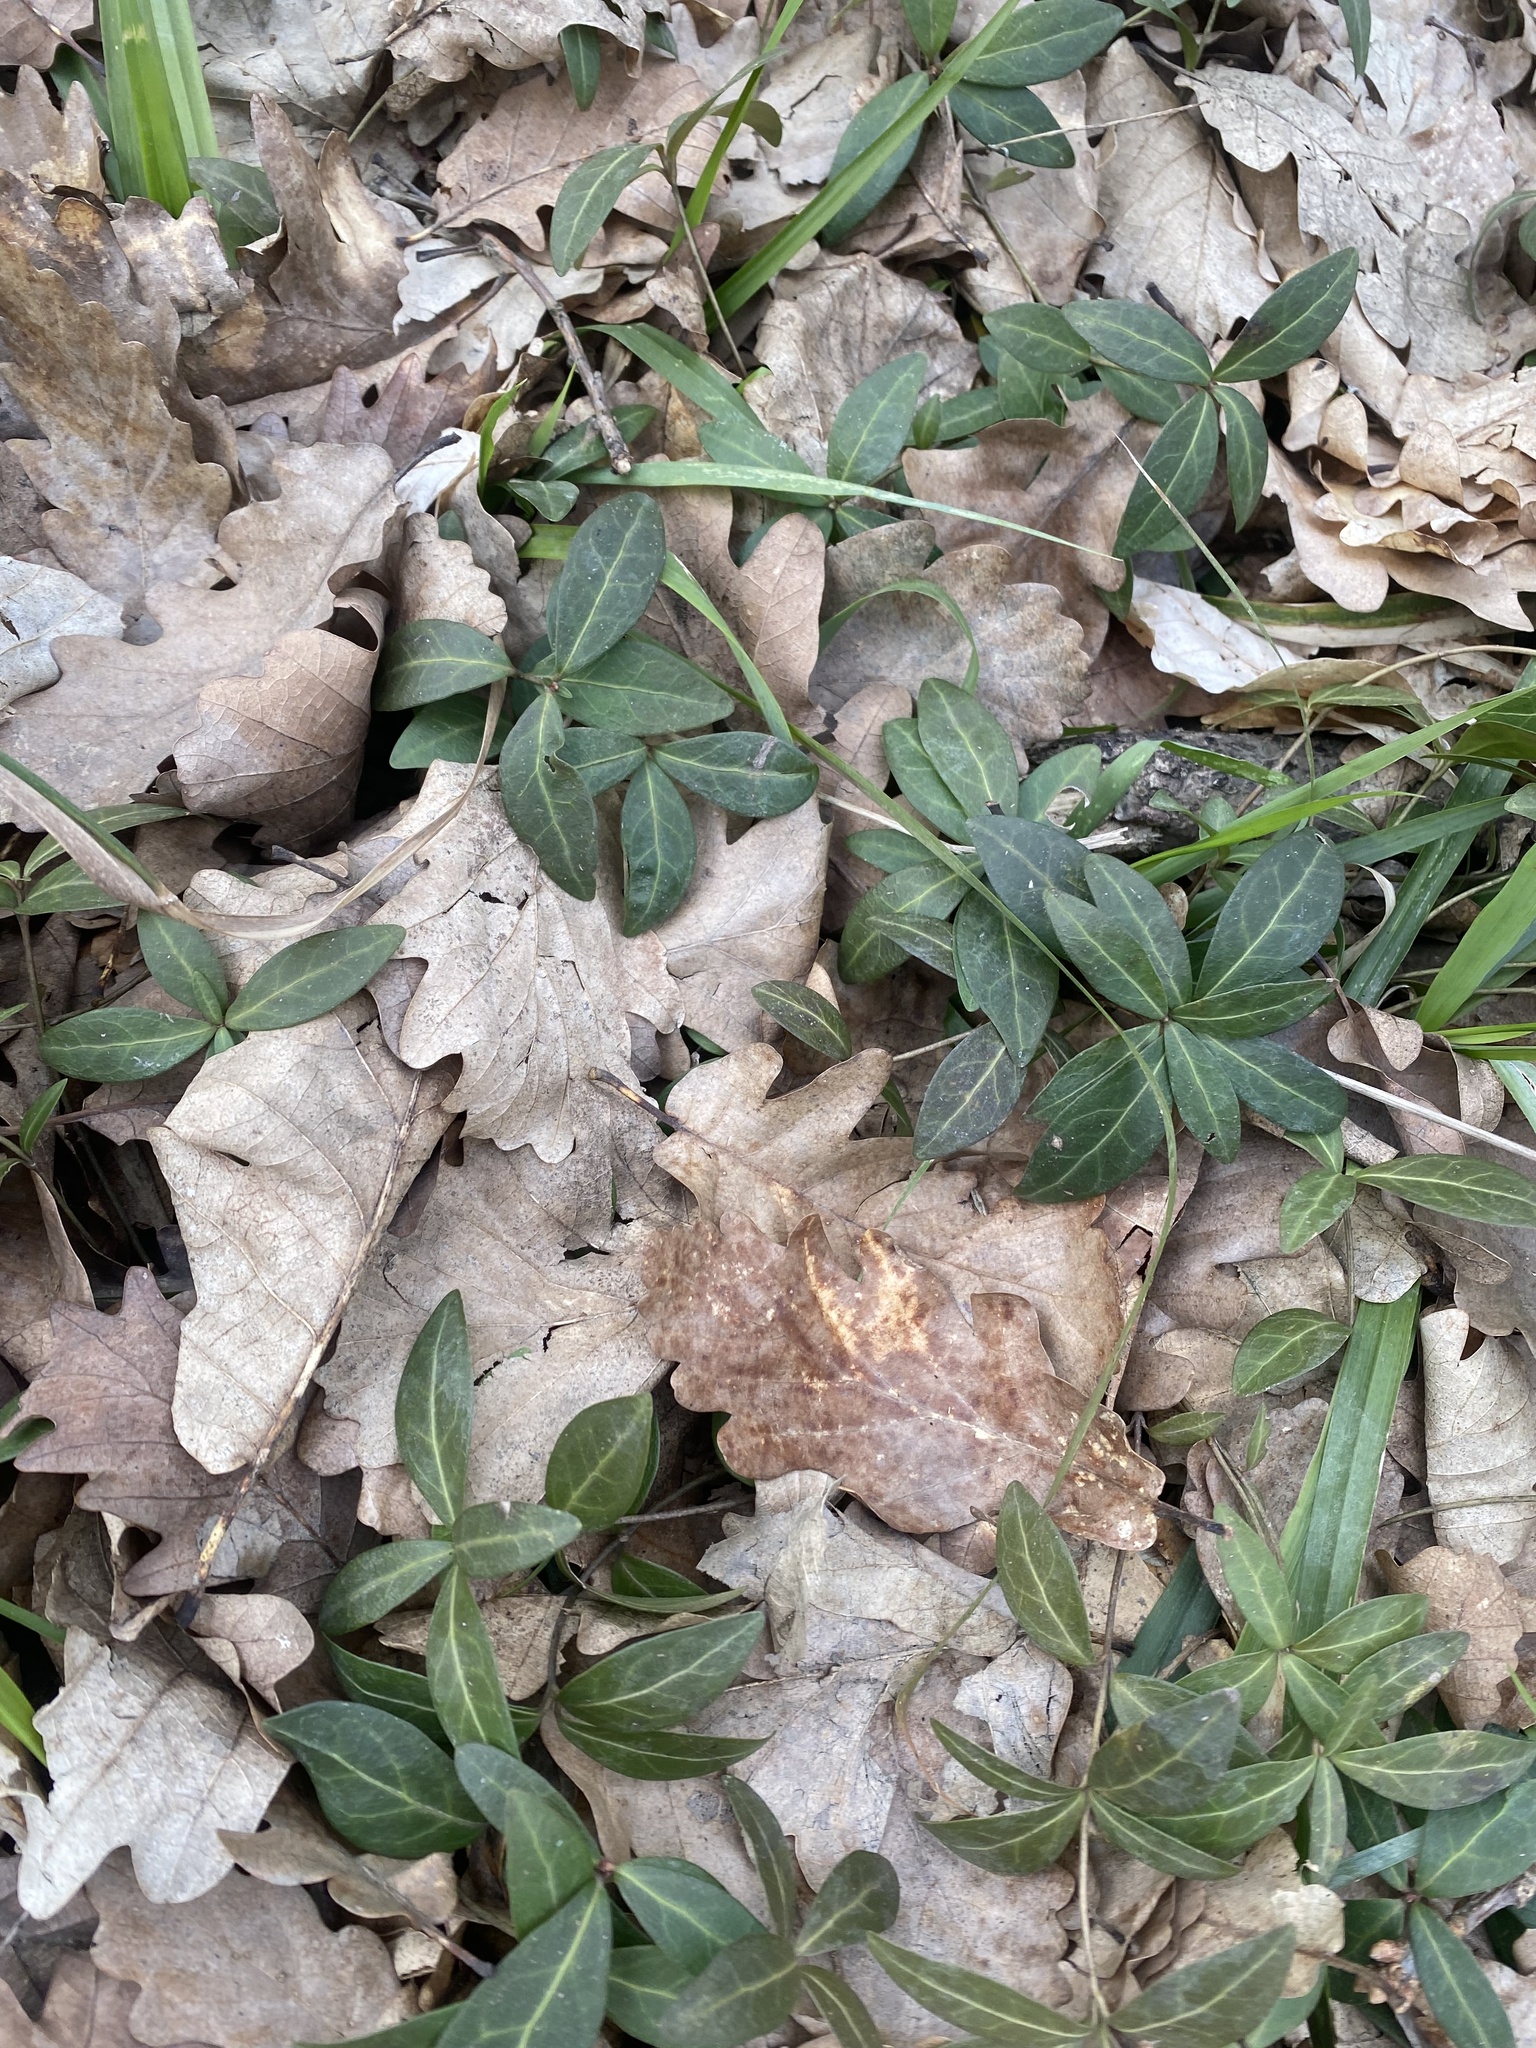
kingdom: Plantae
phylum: Tracheophyta
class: Magnoliopsida
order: Gentianales
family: Apocynaceae
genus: Vinca
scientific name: Vinca minor
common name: Lesser periwinkle
